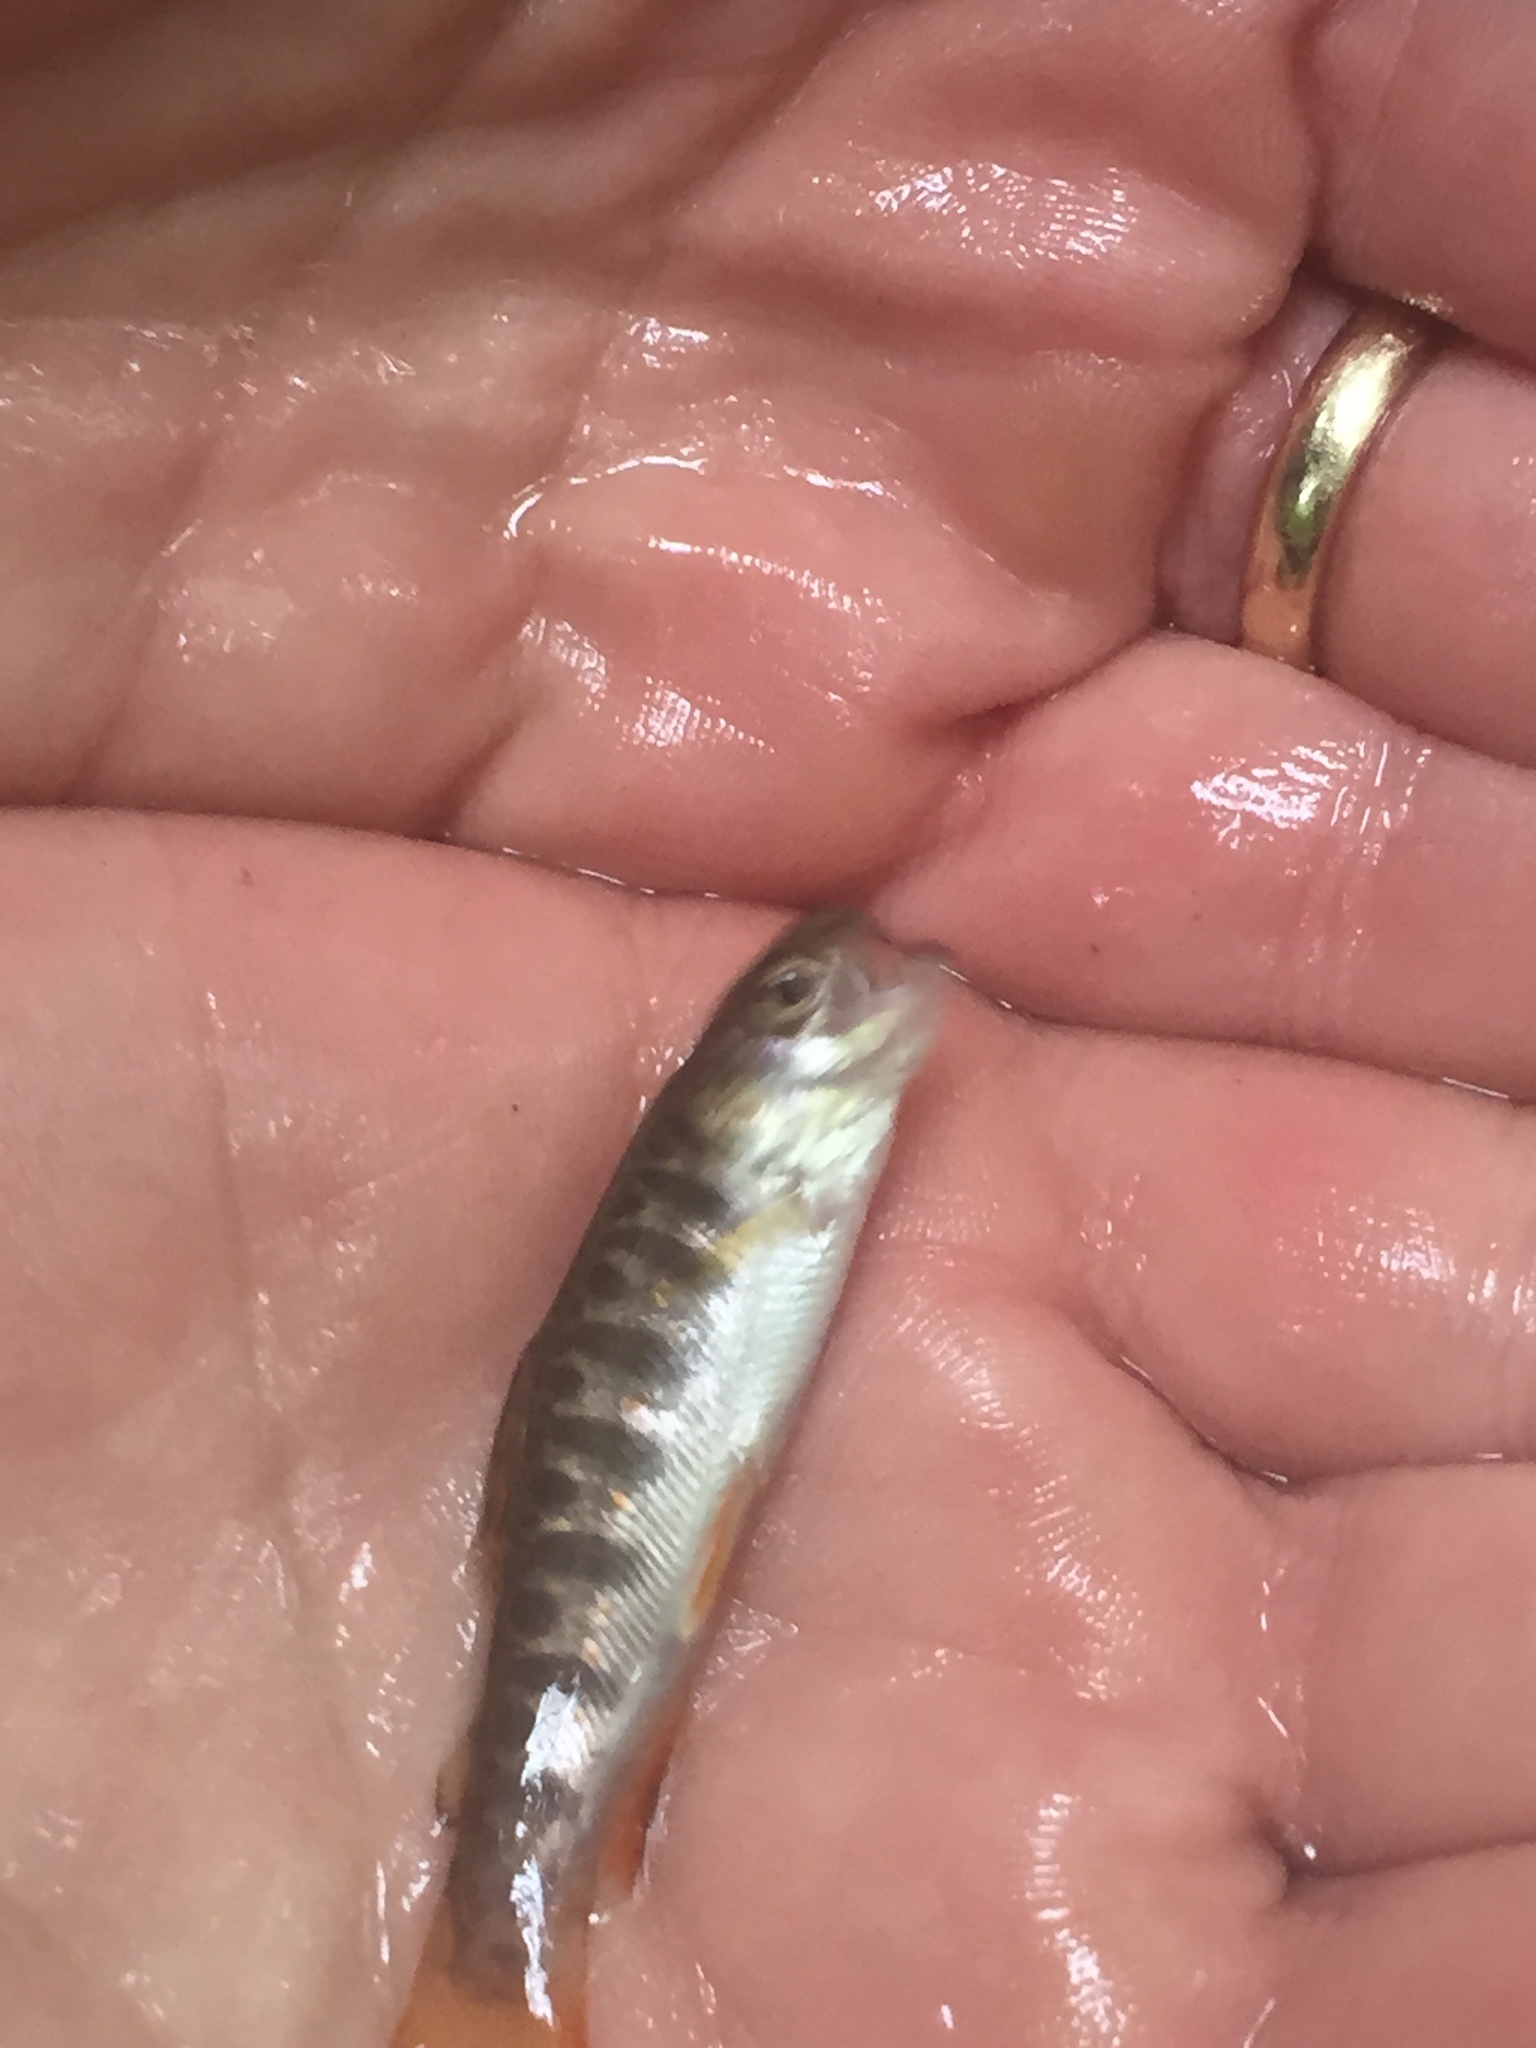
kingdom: Animalia
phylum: Chordata
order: Salmoniformes
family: Salmonidae
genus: Salvelinus
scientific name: Salvelinus fontinalis
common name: Brook trout
